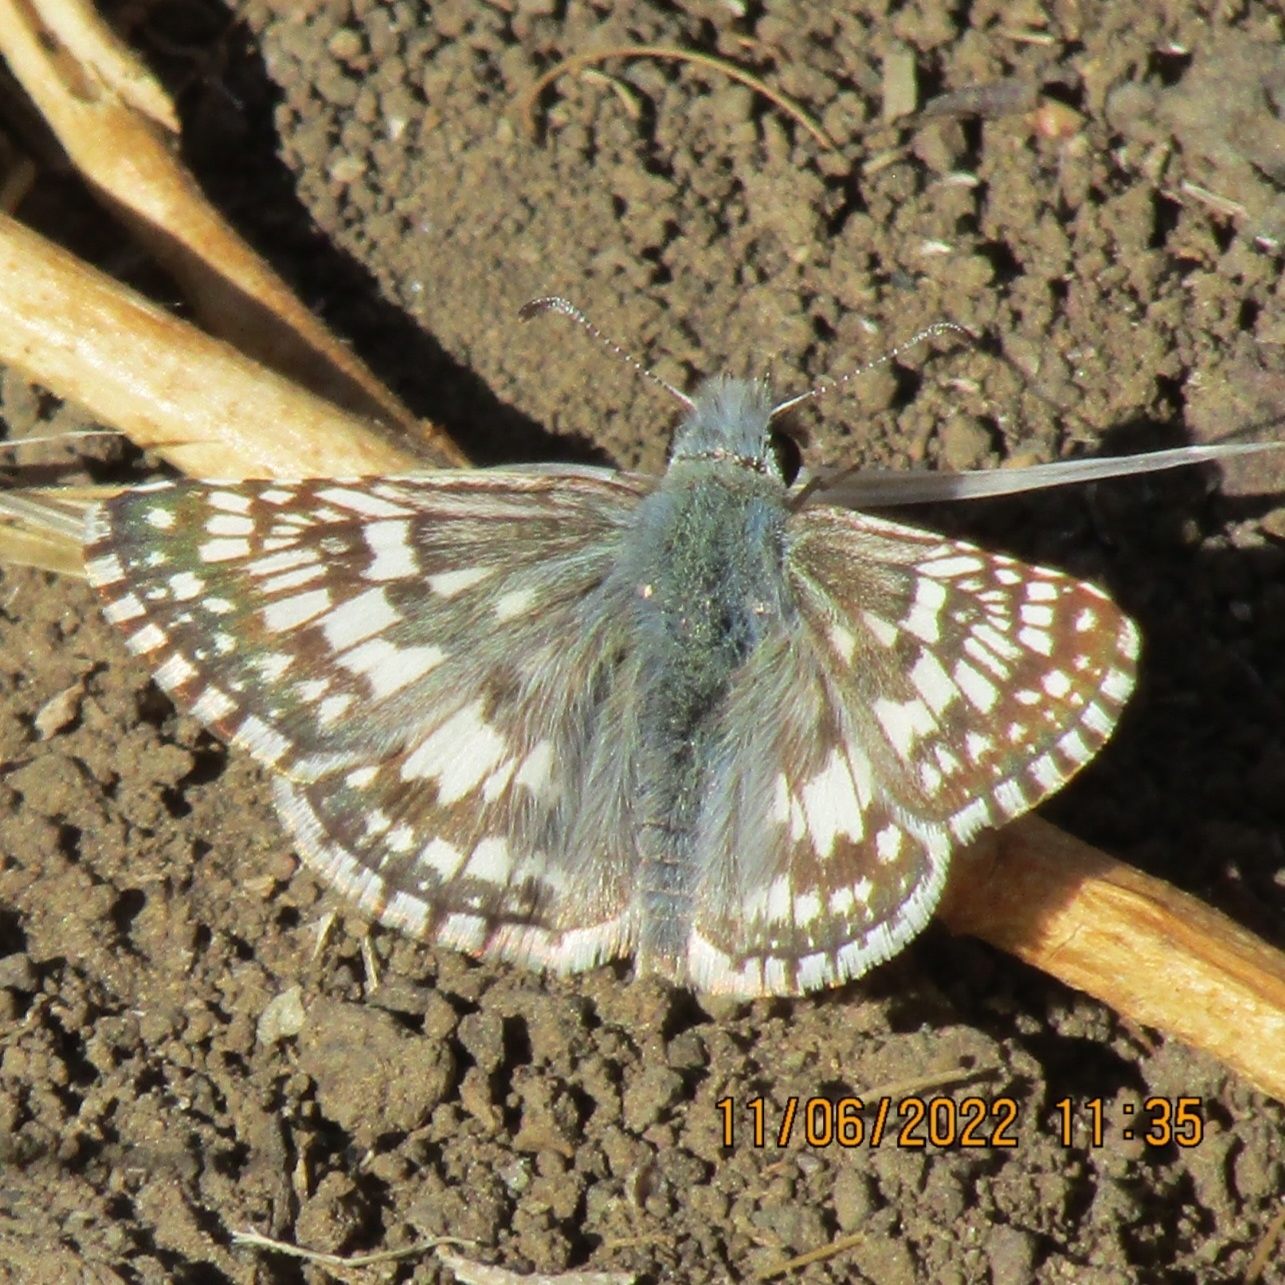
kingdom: Animalia
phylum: Arthropoda
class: Insecta
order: Lepidoptera
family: Hesperiidae
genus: Burnsius
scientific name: Burnsius albezens
